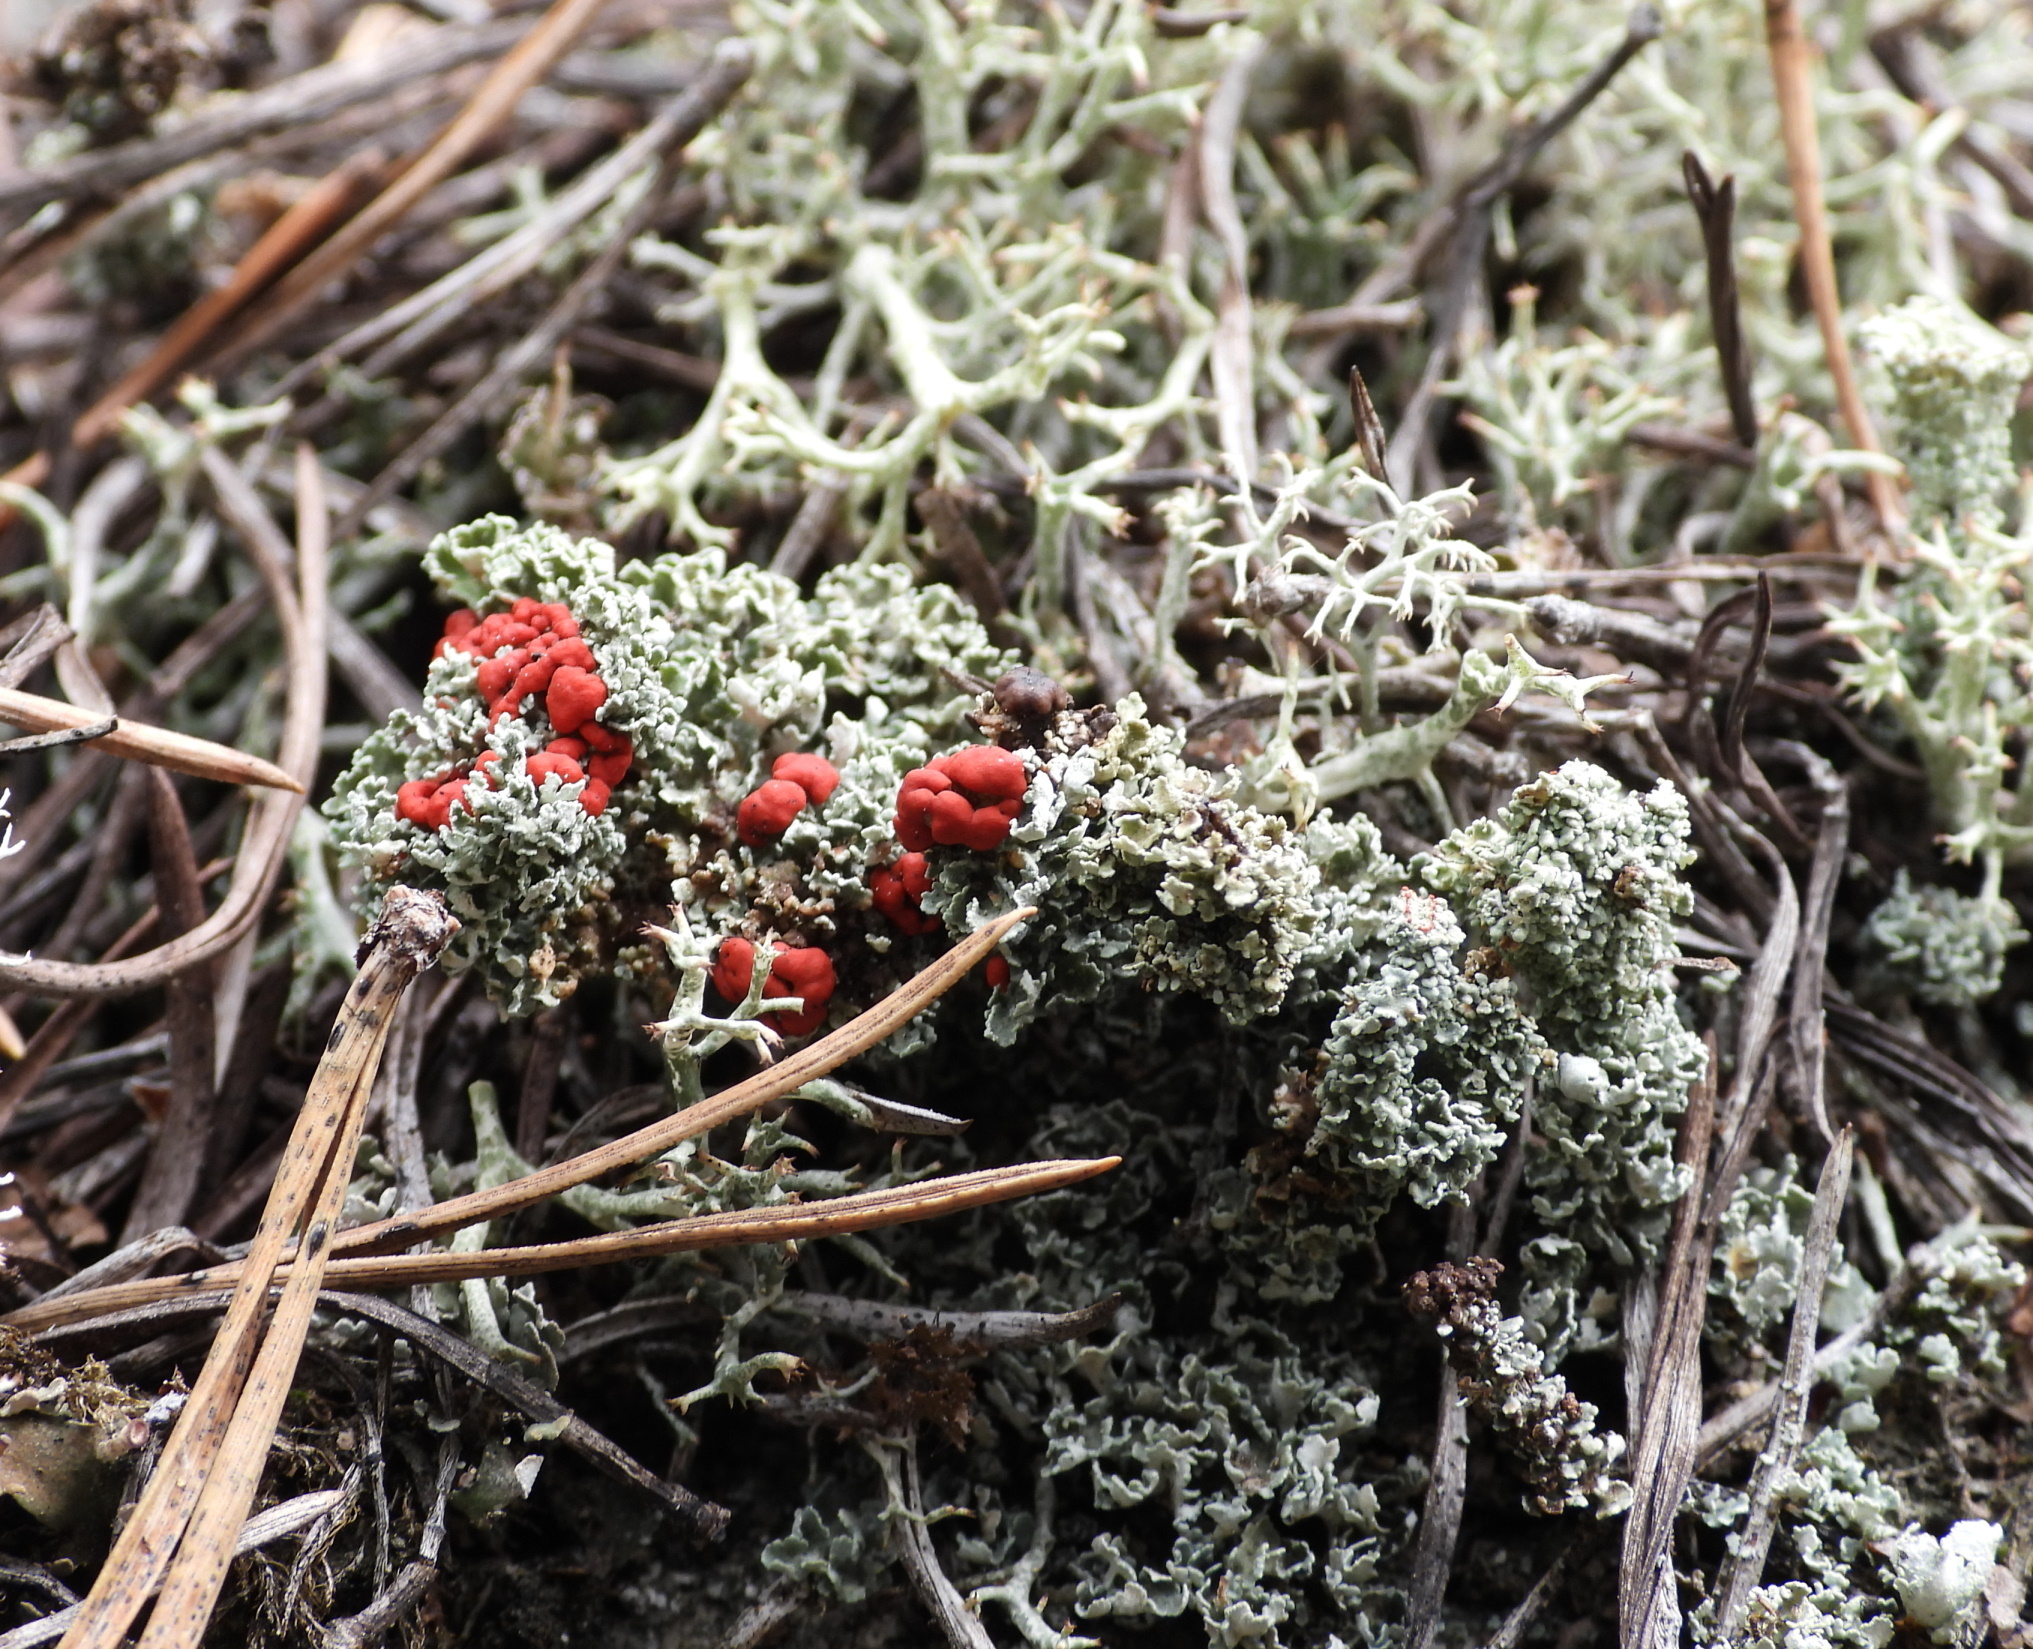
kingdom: Fungi
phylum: Ascomycota
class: Lecanoromycetes
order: Lecanorales
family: Cladoniaceae
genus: Cladonia
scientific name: Cladonia bellidiflora
